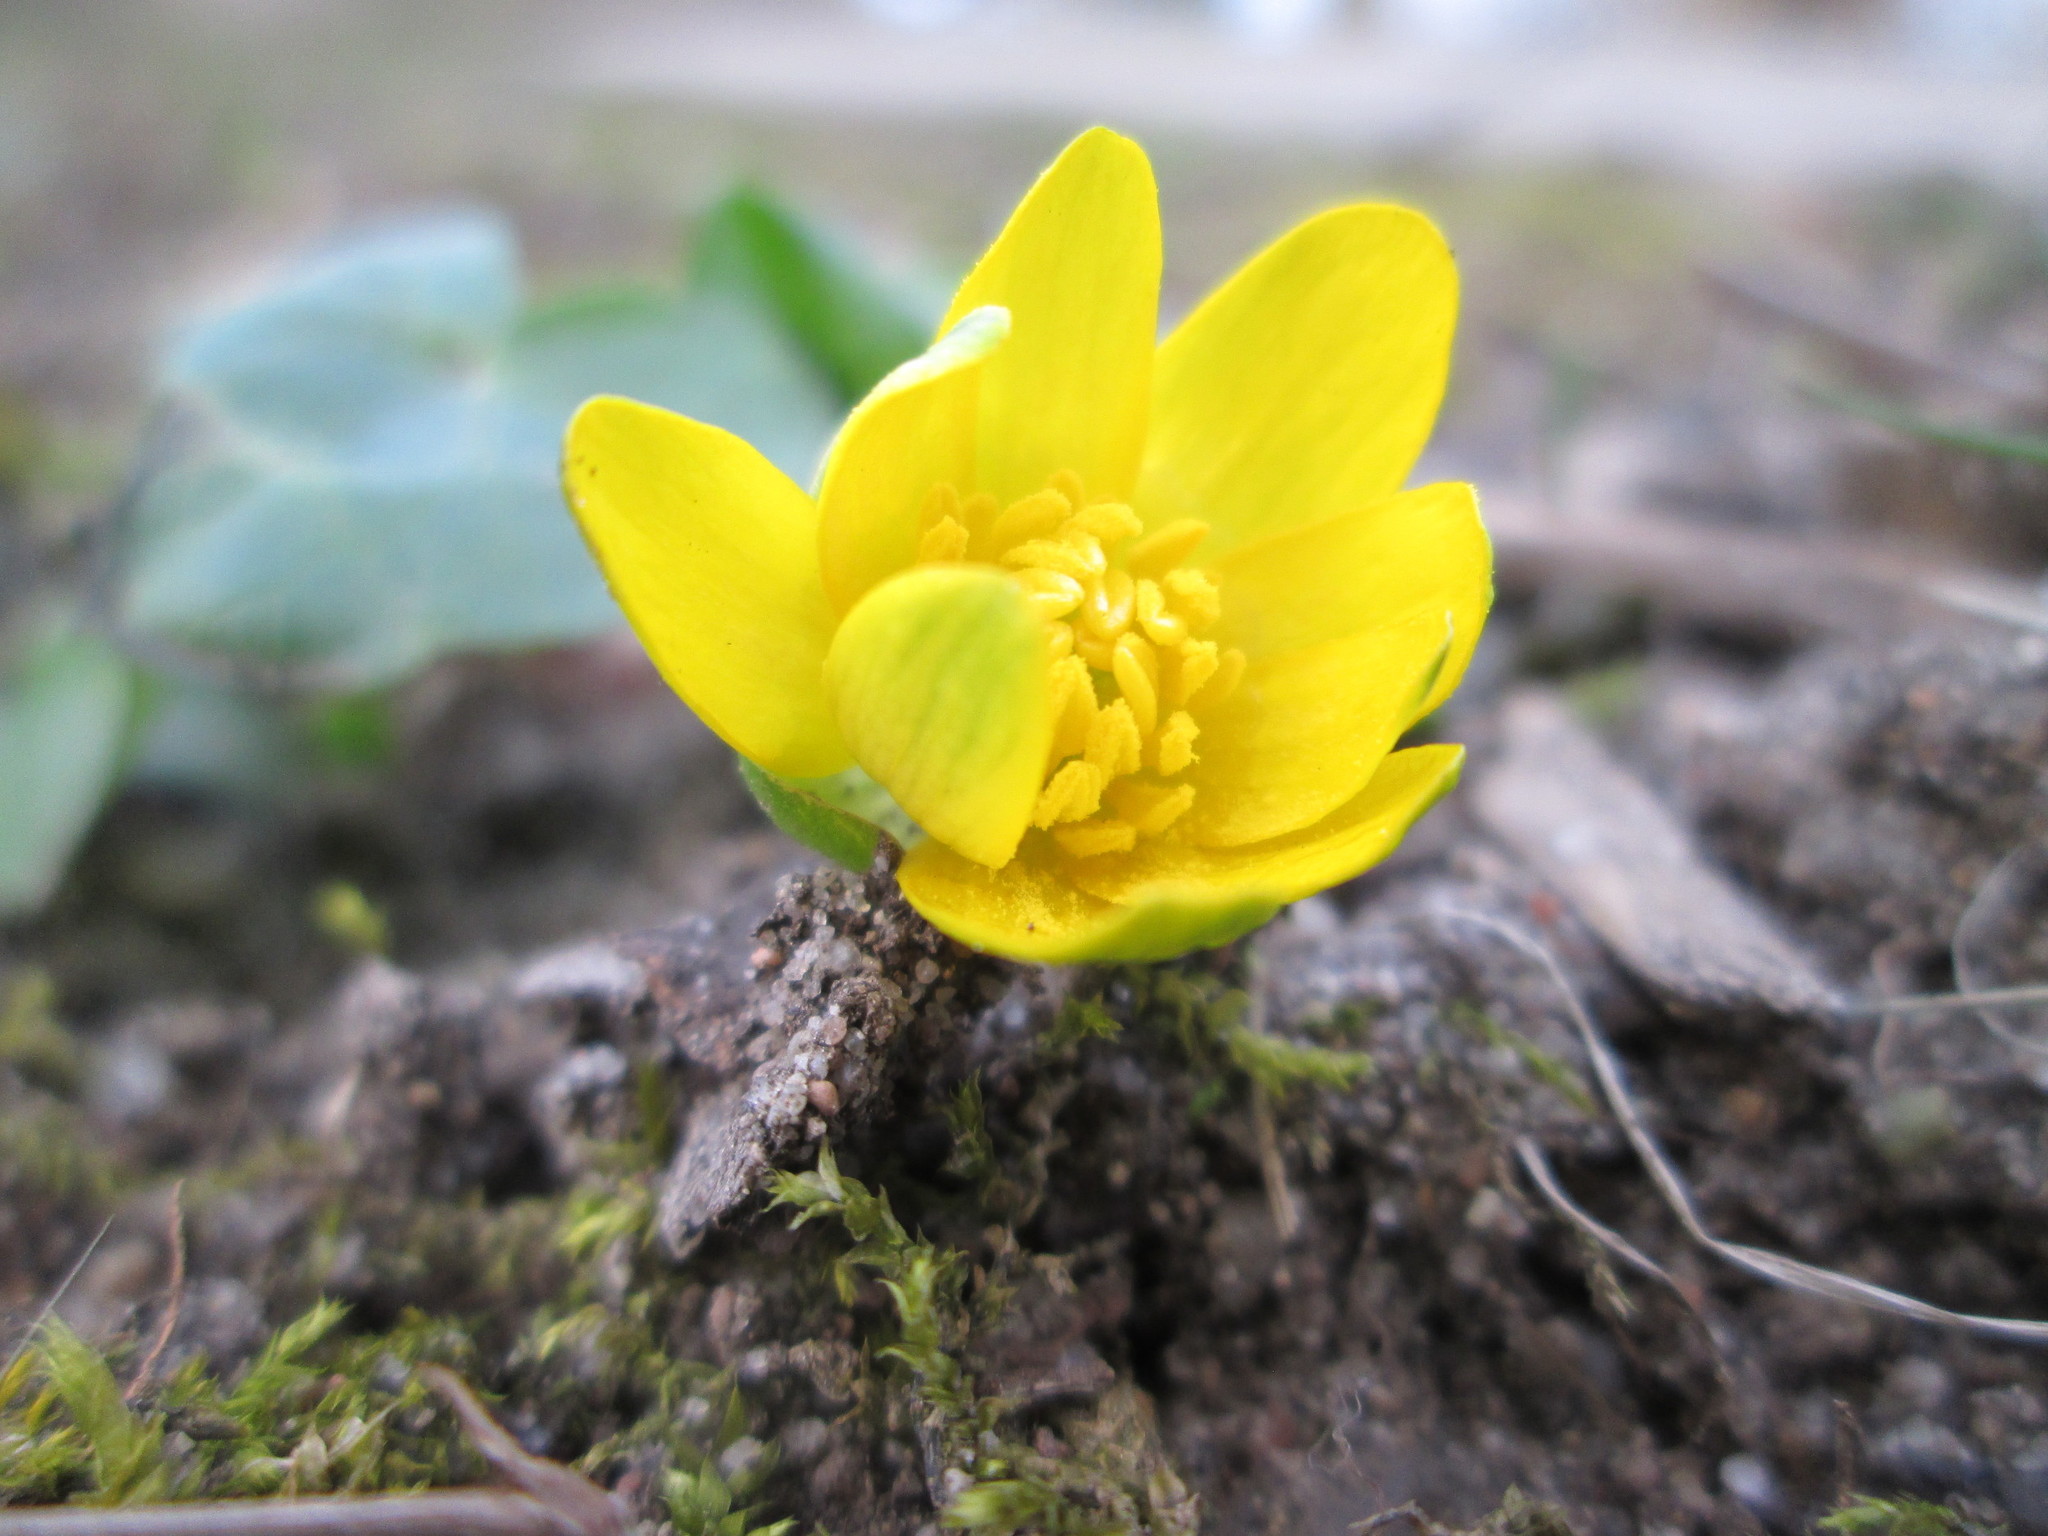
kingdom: Plantae
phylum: Tracheophyta
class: Magnoliopsida
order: Ranunculales
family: Ranunculaceae
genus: Ficaria
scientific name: Ficaria verna
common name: Lesser celandine
